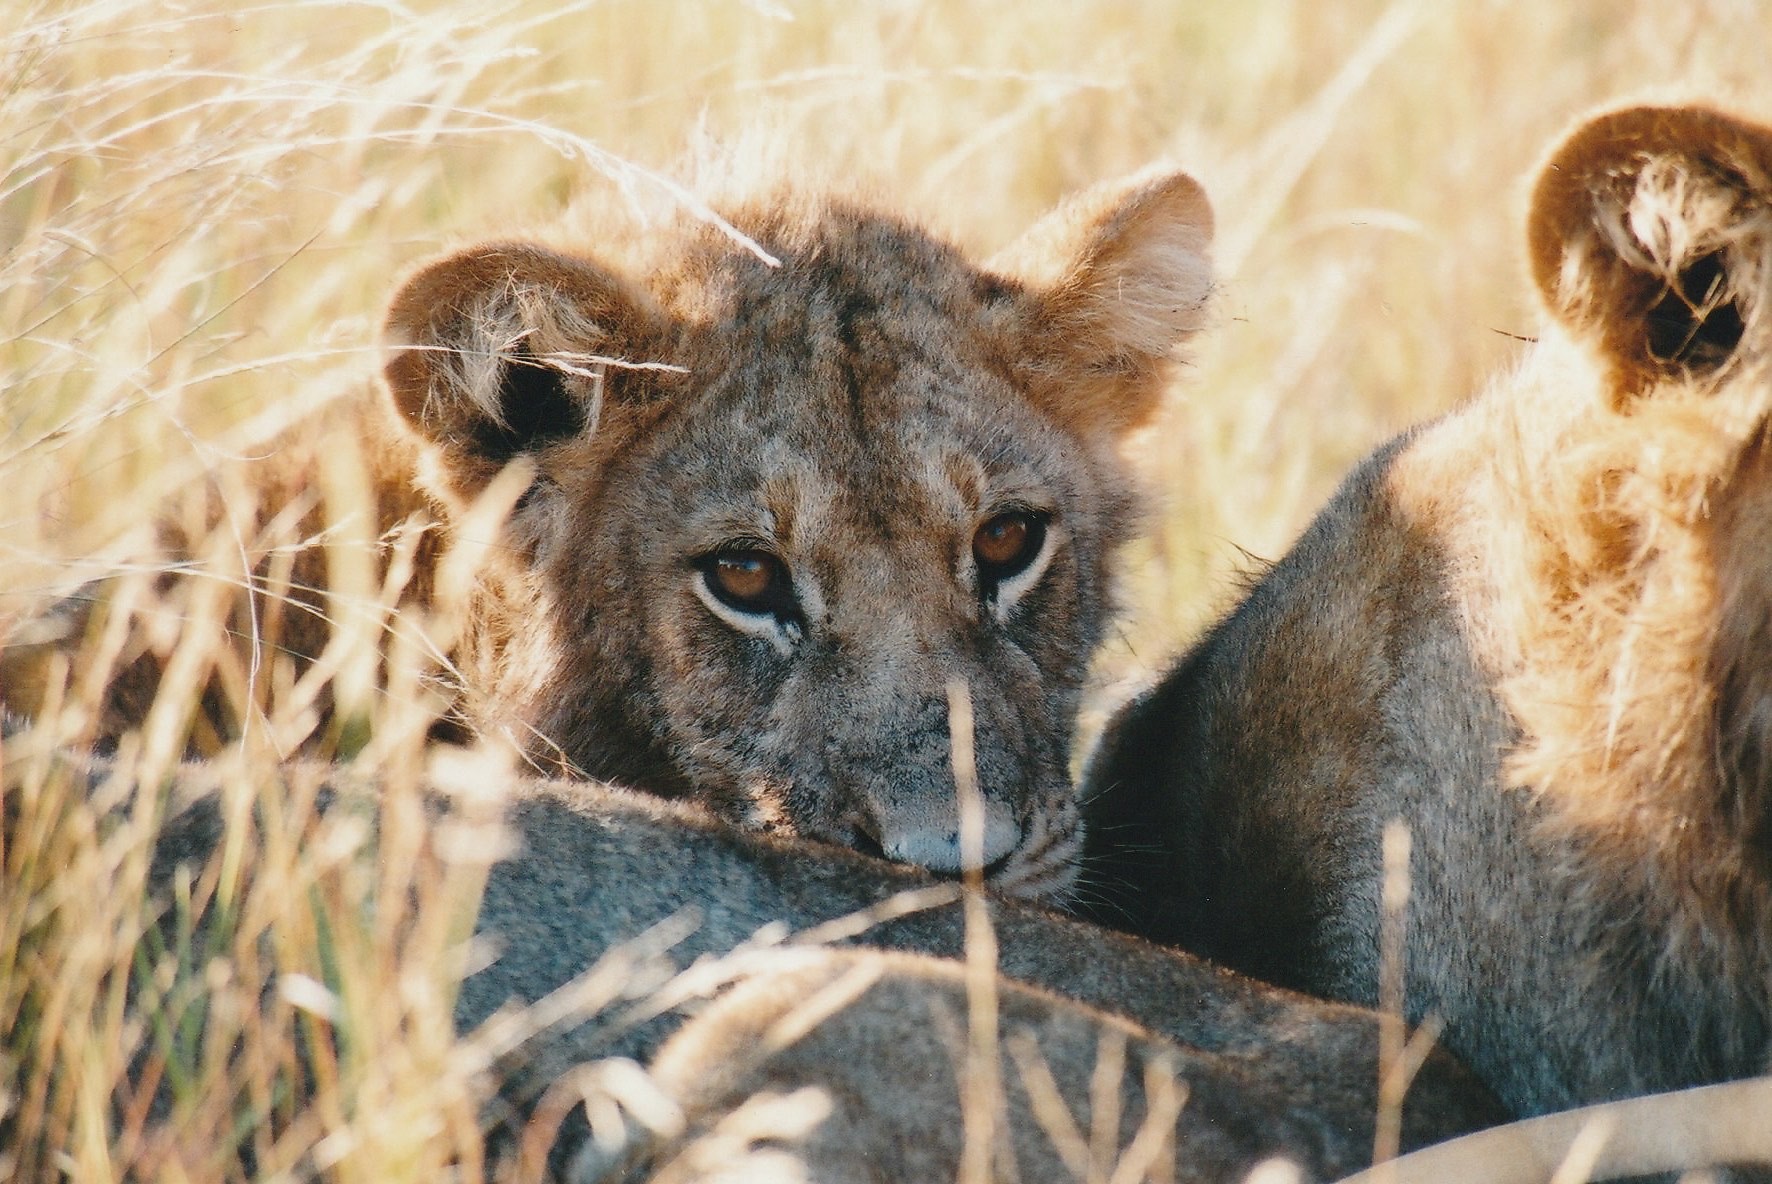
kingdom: Animalia
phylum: Chordata
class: Mammalia
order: Carnivora
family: Felidae
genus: Panthera
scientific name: Panthera leo
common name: Lion
